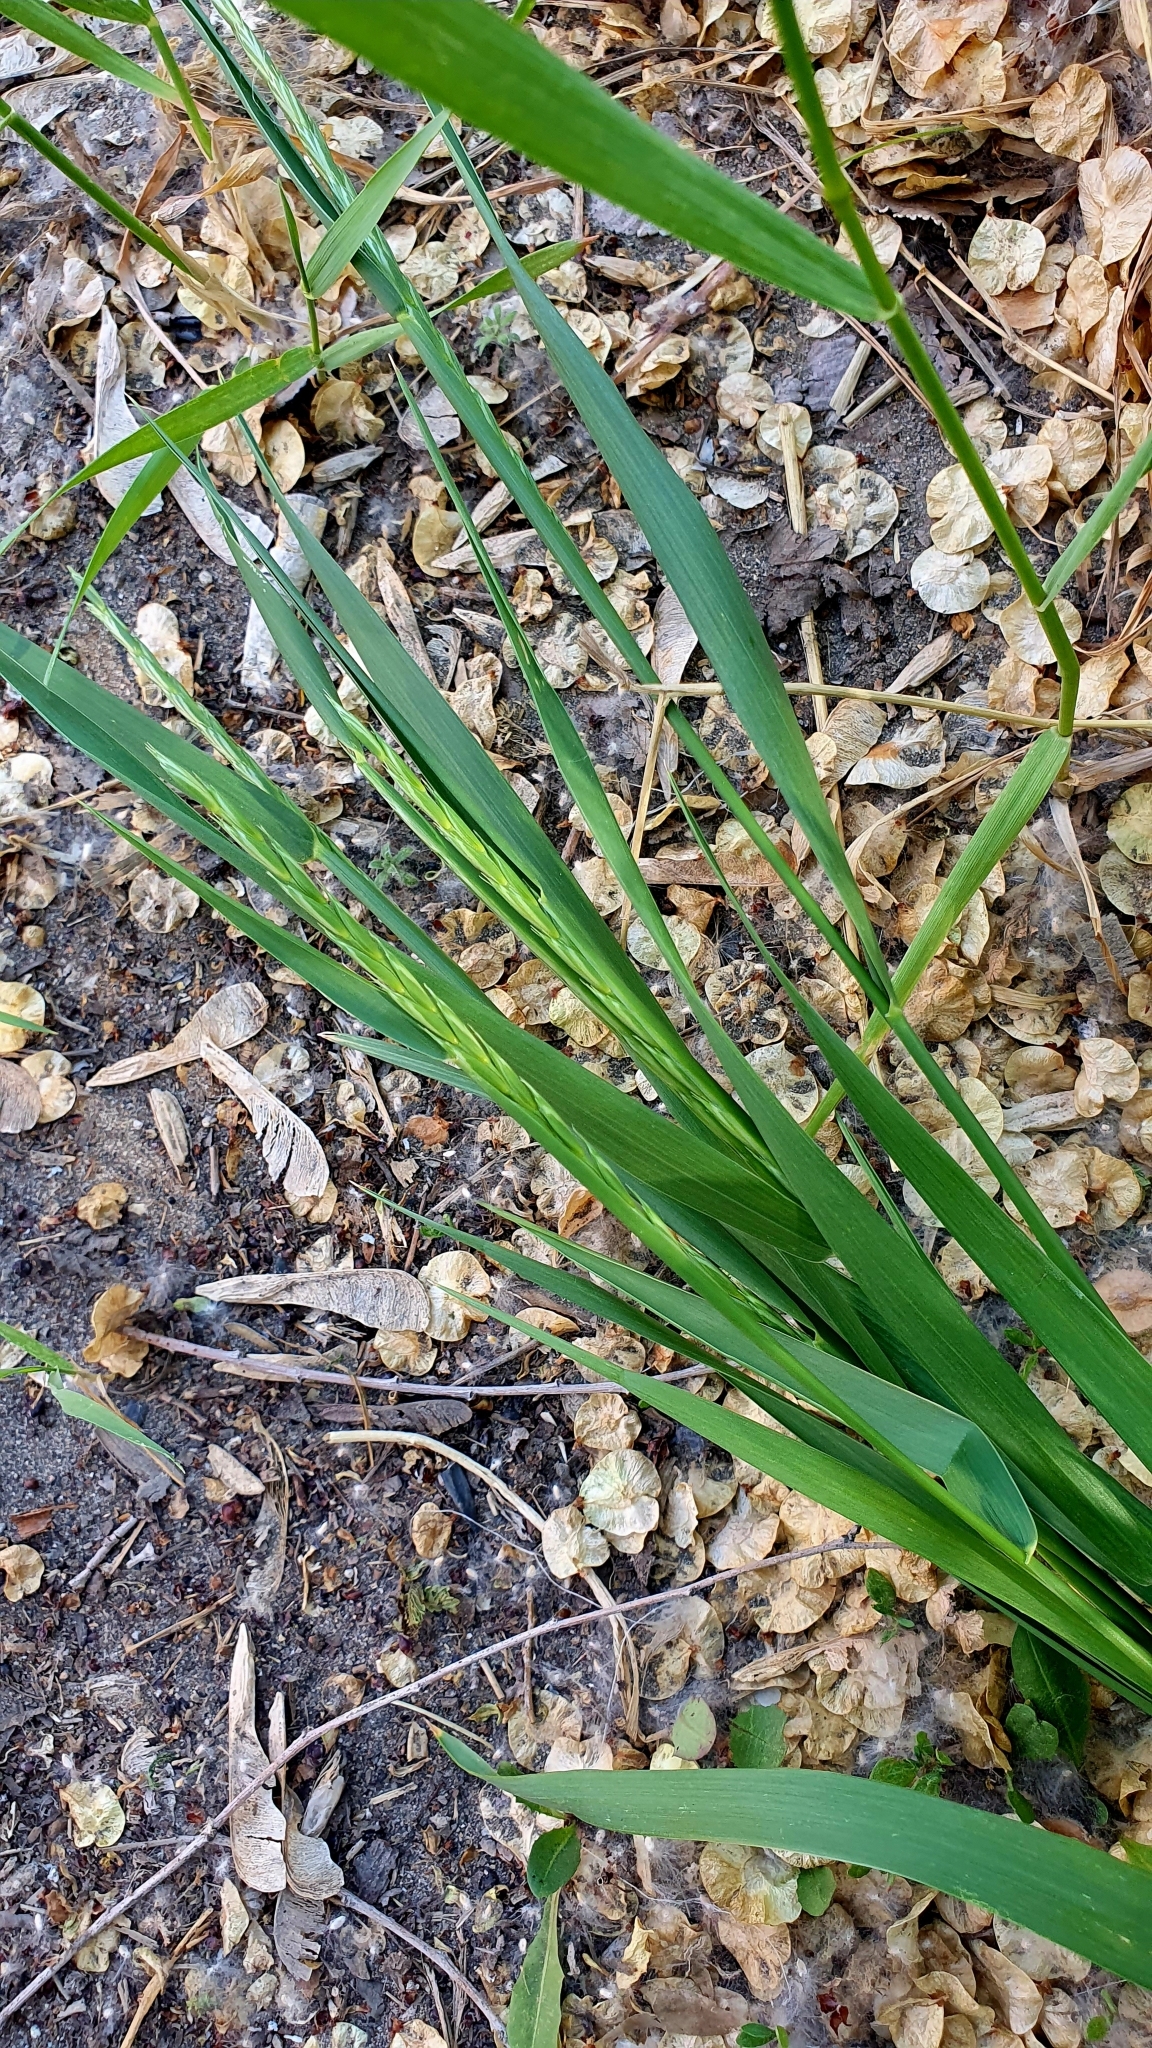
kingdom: Plantae
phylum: Tracheophyta
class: Liliopsida
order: Poales
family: Poaceae
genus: Elymus
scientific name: Elymus repens
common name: Quackgrass
